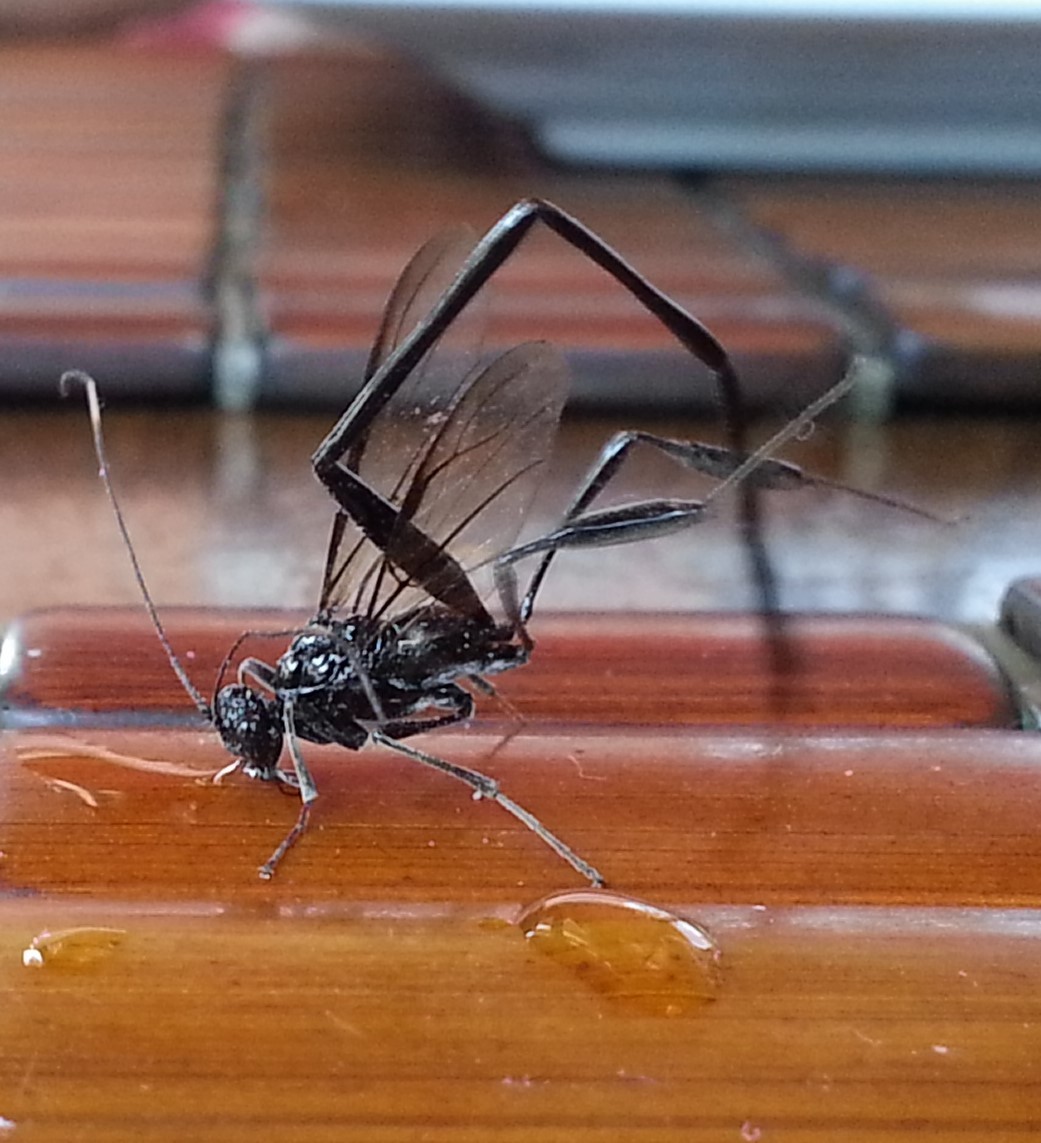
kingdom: Animalia
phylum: Arthropoda
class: Insecta
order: Hymenoptera
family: Pelecinidae
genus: Pelecinus
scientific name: Pelecinus polyturator
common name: American pelecinid wasp
